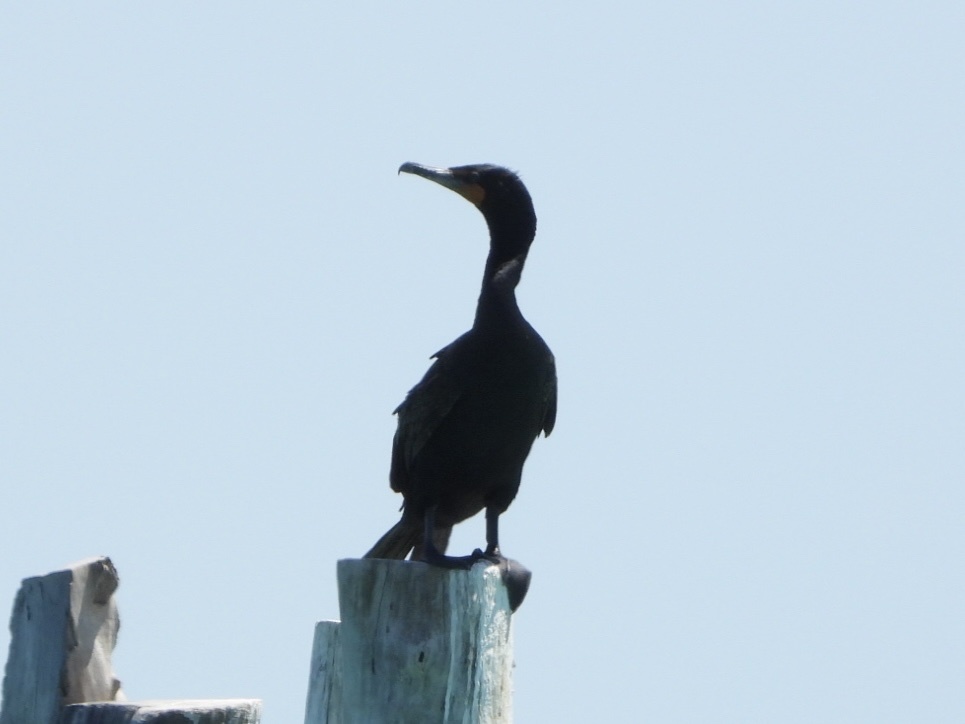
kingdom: Animalia
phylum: Chordata
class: Aves
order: Suliformes
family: Phalacrocoracidae
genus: Phalacrocorax
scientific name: Phalacrocorax auritus
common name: Double-crested cormorant
